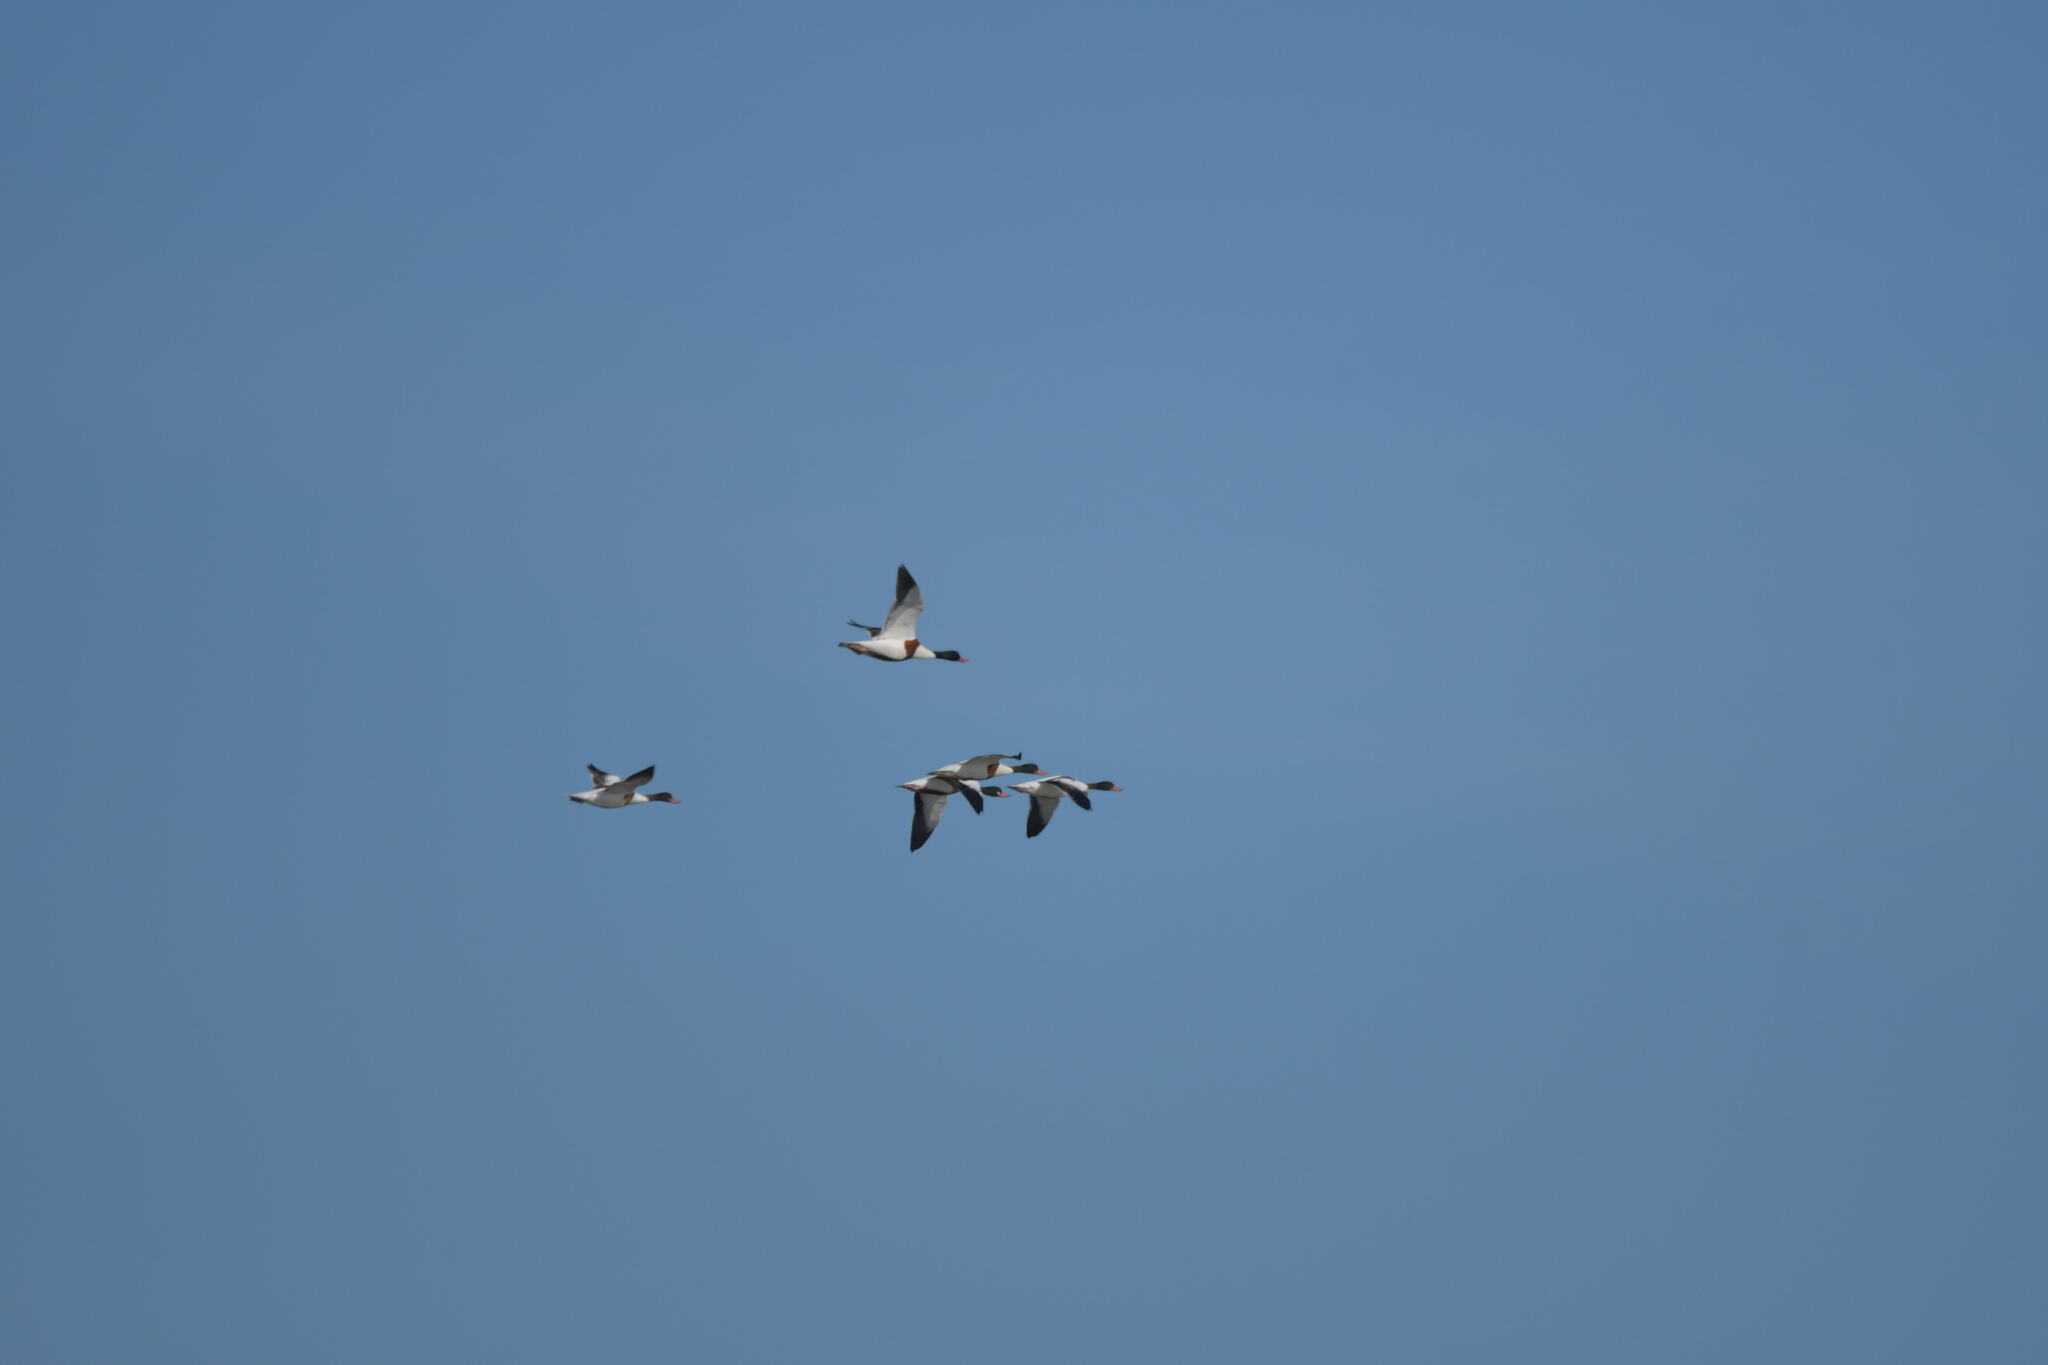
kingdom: Animalia
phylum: Chordata
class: Aves
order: Anseriformes
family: Anatidae
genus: Tadorna
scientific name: Tadorna tadorna
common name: Common shelduck
